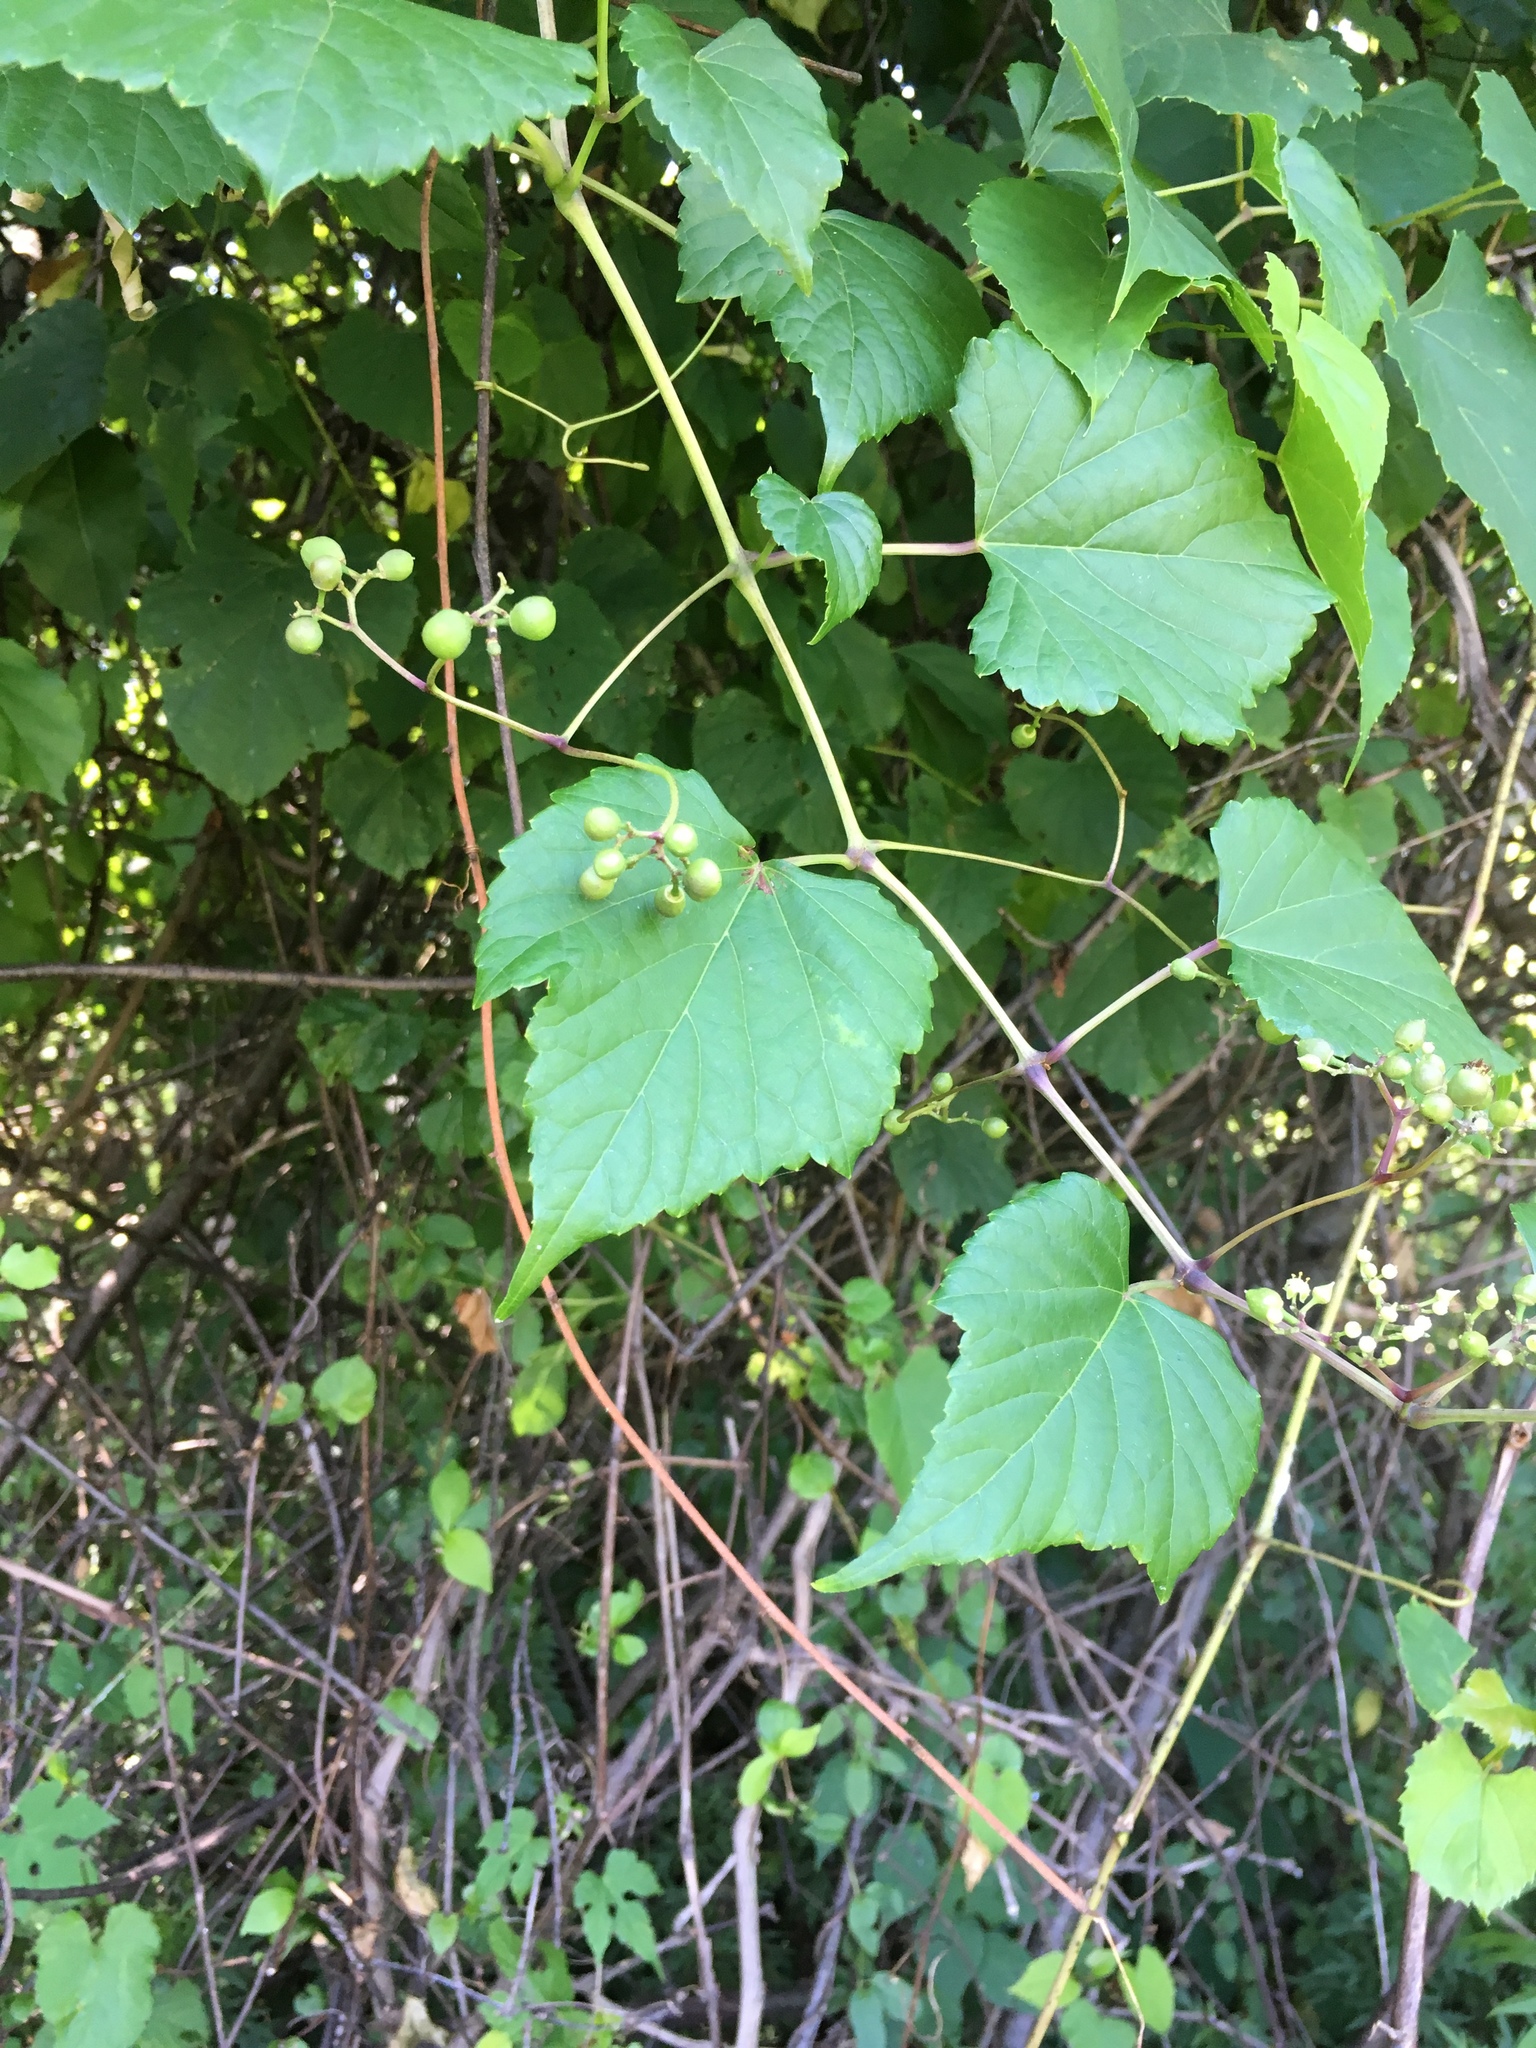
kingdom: Plantae
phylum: Tracheophyta
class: Magnoliopsida
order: Vitales
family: Vitaceae
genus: Ampelopsis
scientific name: Ampelopsis glandulosa
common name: Amur peppervine
